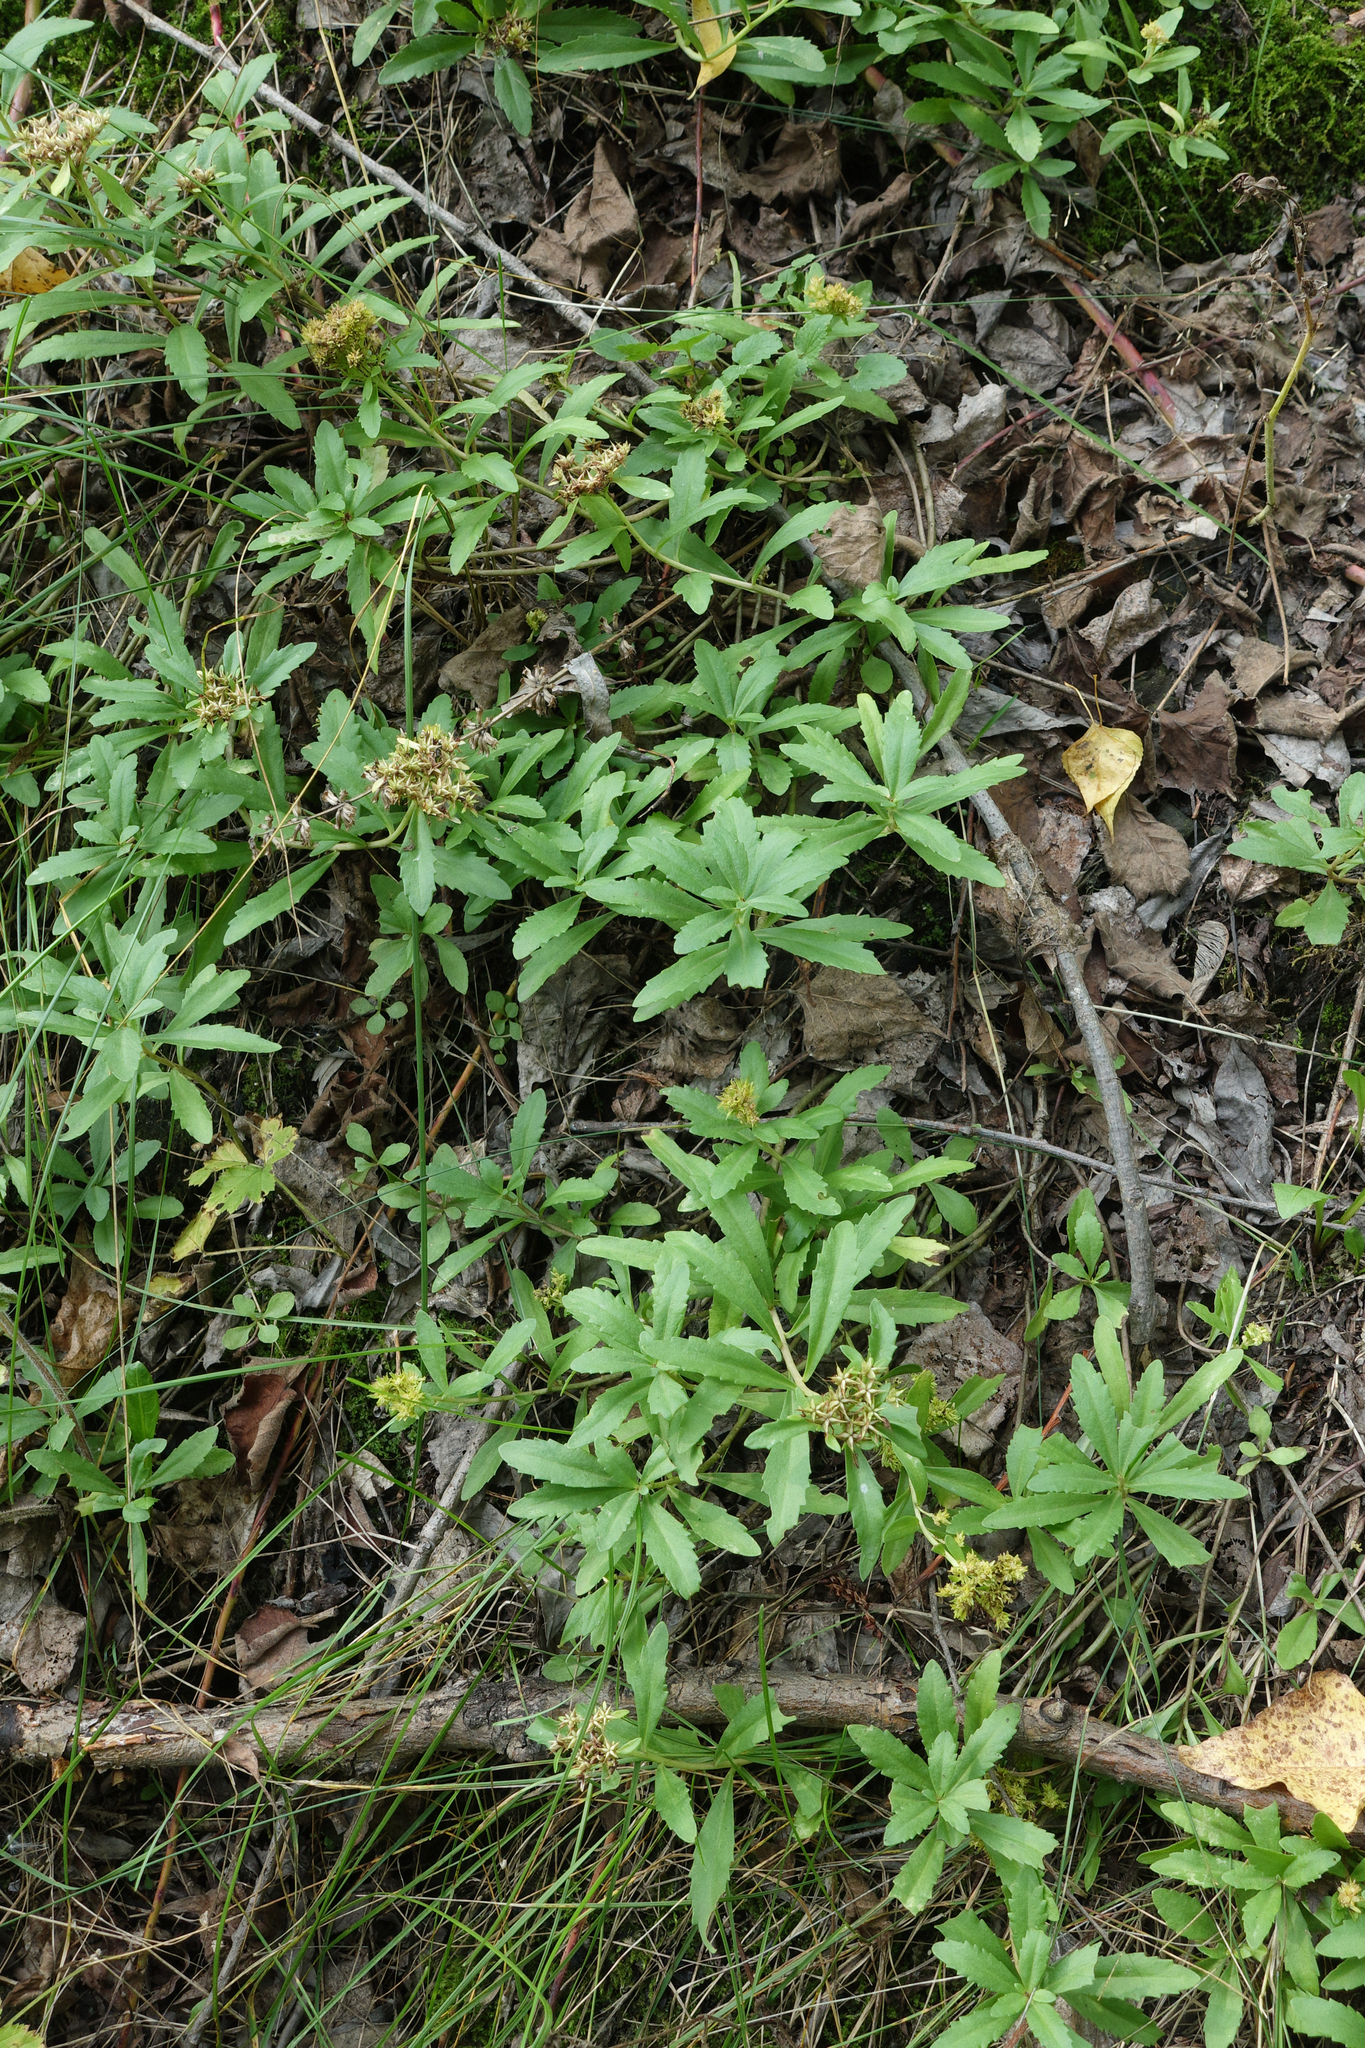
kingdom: Plantae
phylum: Tracheophyta
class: Magnoliopsida
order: Saxifragales
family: Crassulaceae
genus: Phedimus
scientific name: Phedimus aizoon
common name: Orpin aizoon
